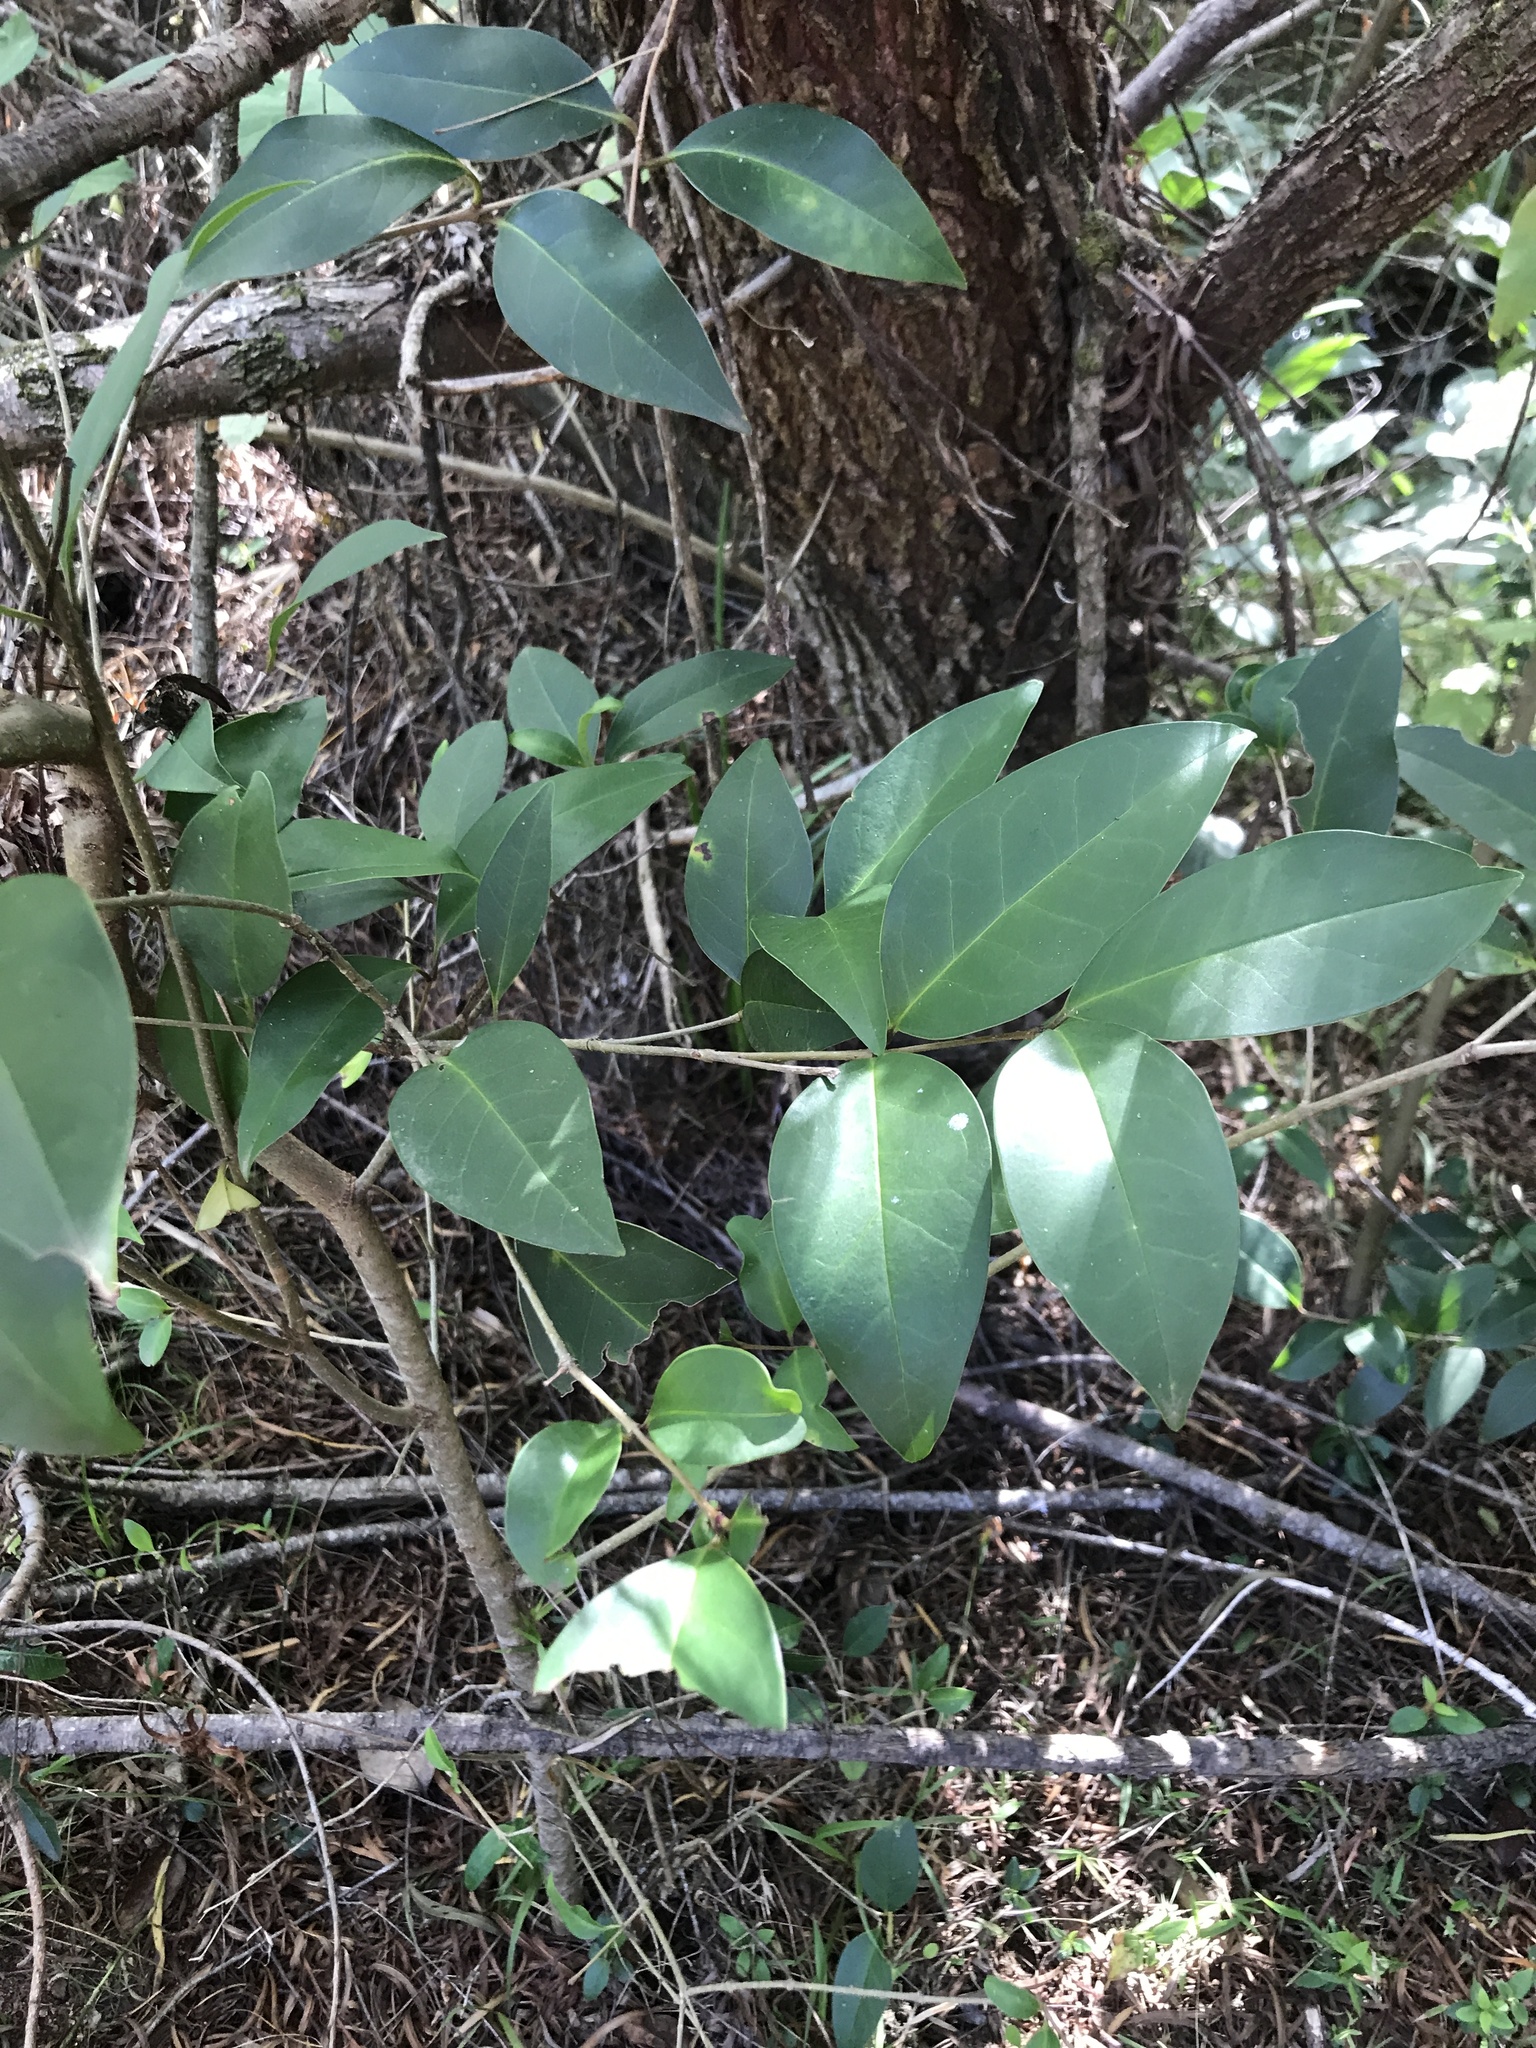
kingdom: Plantae
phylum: Tracheophyta
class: Magnoliopsida
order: Lamiales
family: Oleaceae
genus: Ligustrum
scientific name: Ligustrum lucidum
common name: Glossy privet
